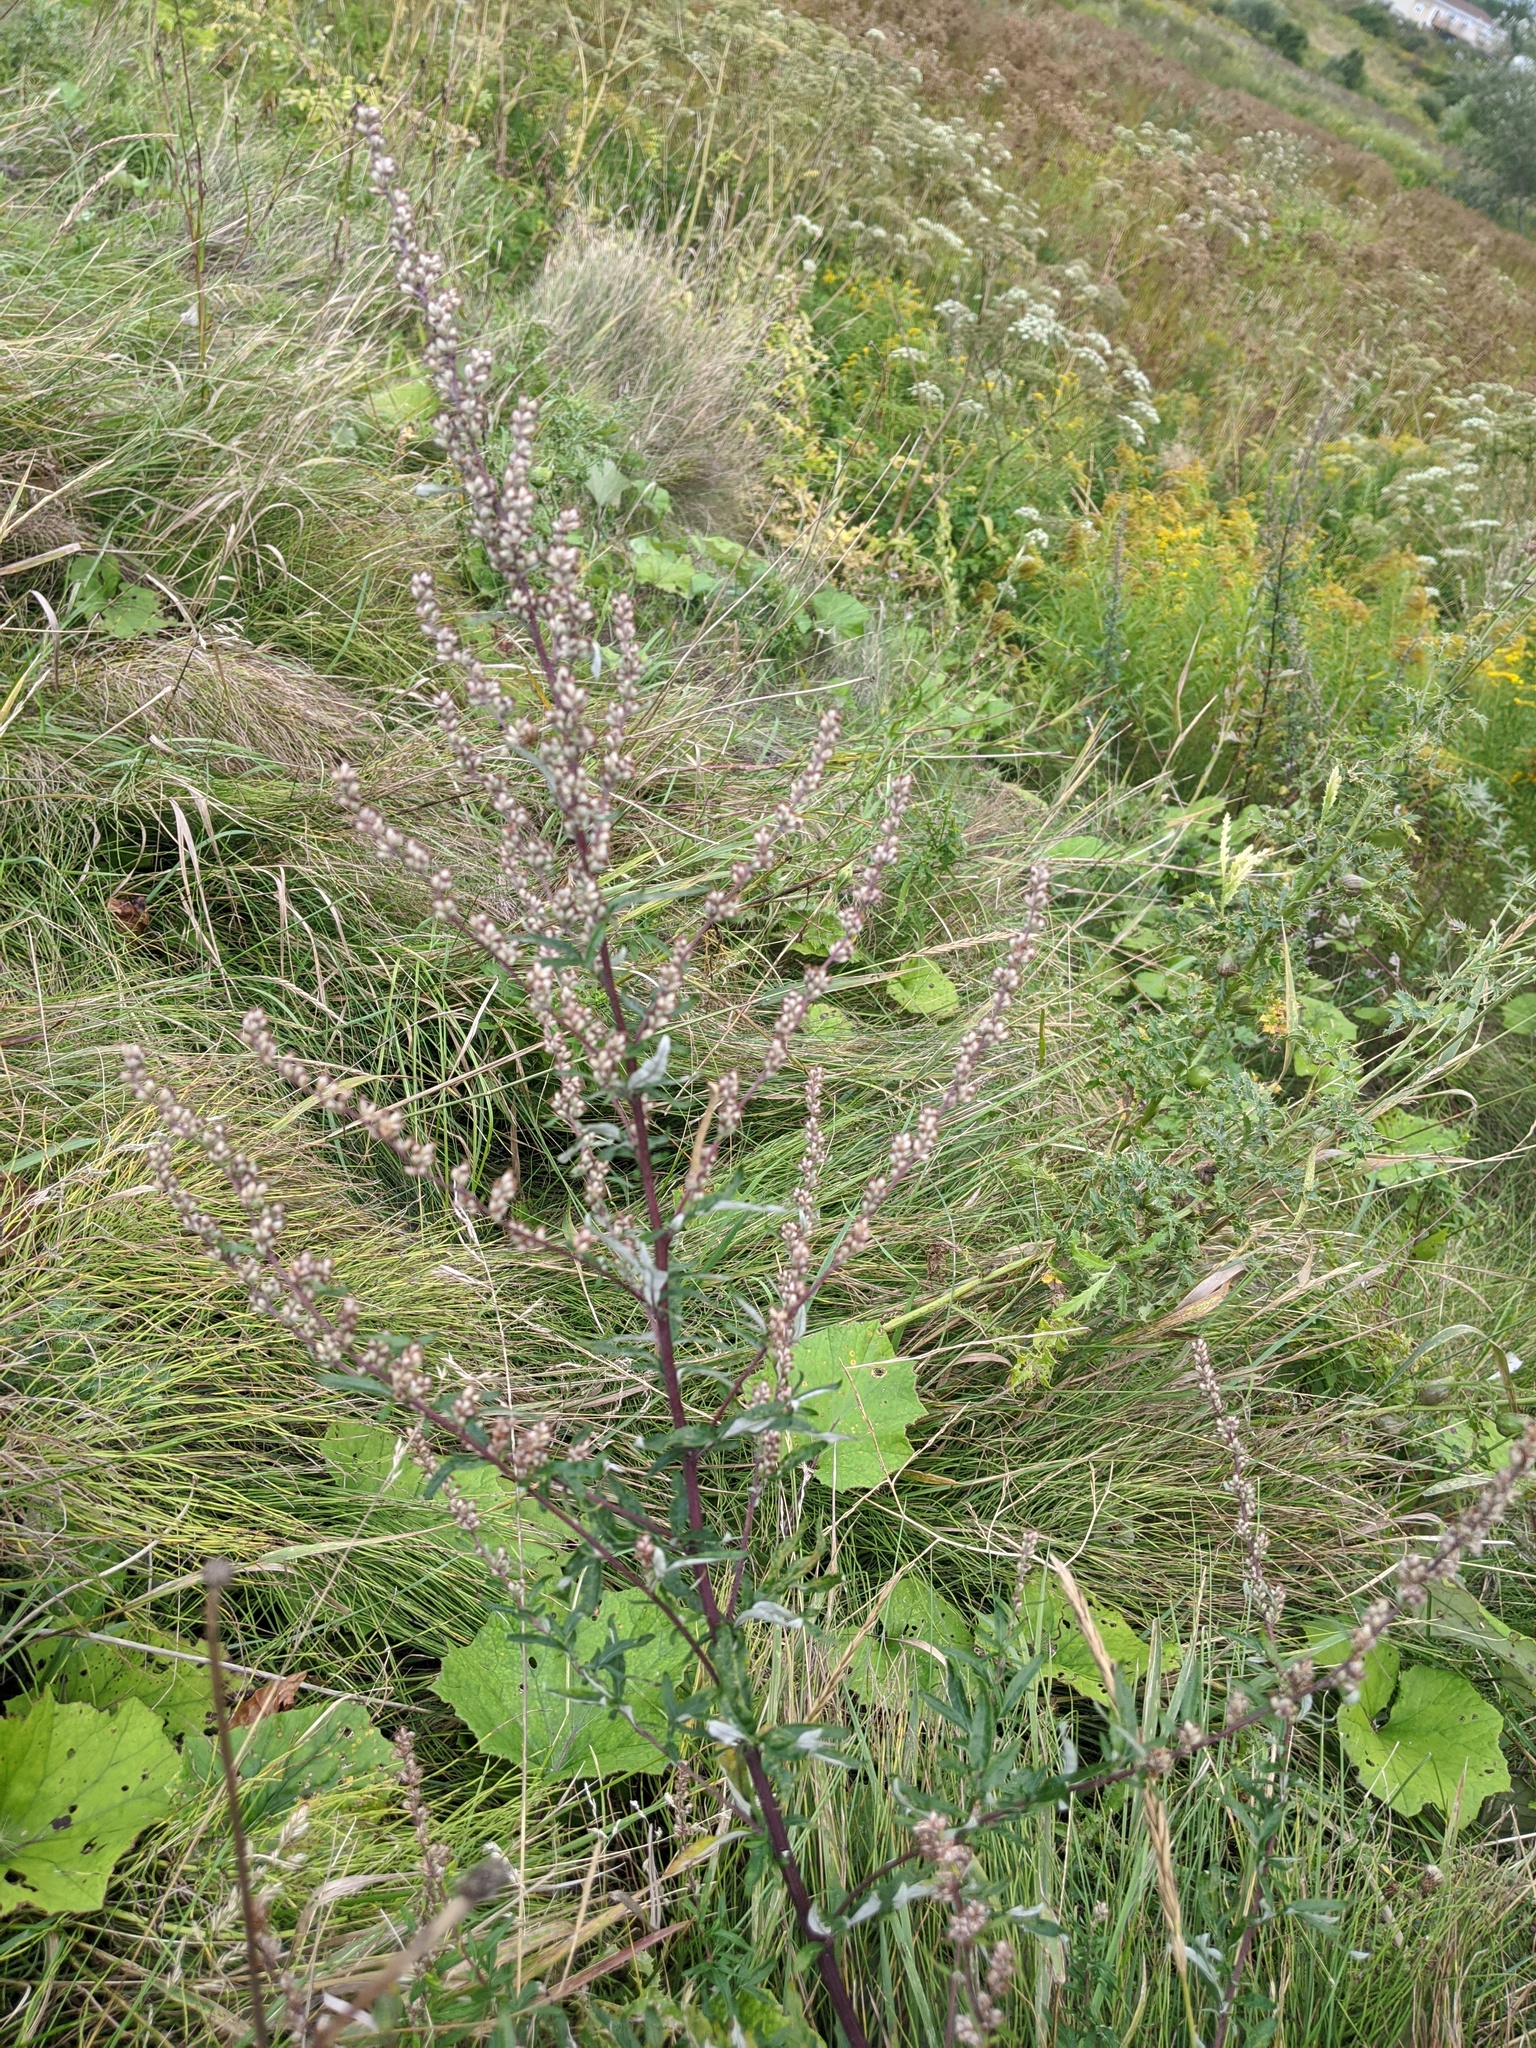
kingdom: Plantae
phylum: Tracheophyta
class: Magnoliopsida
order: Asterales
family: Asteraceae
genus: Artemisia
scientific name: Artemisia vulgaris
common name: Mugwort
